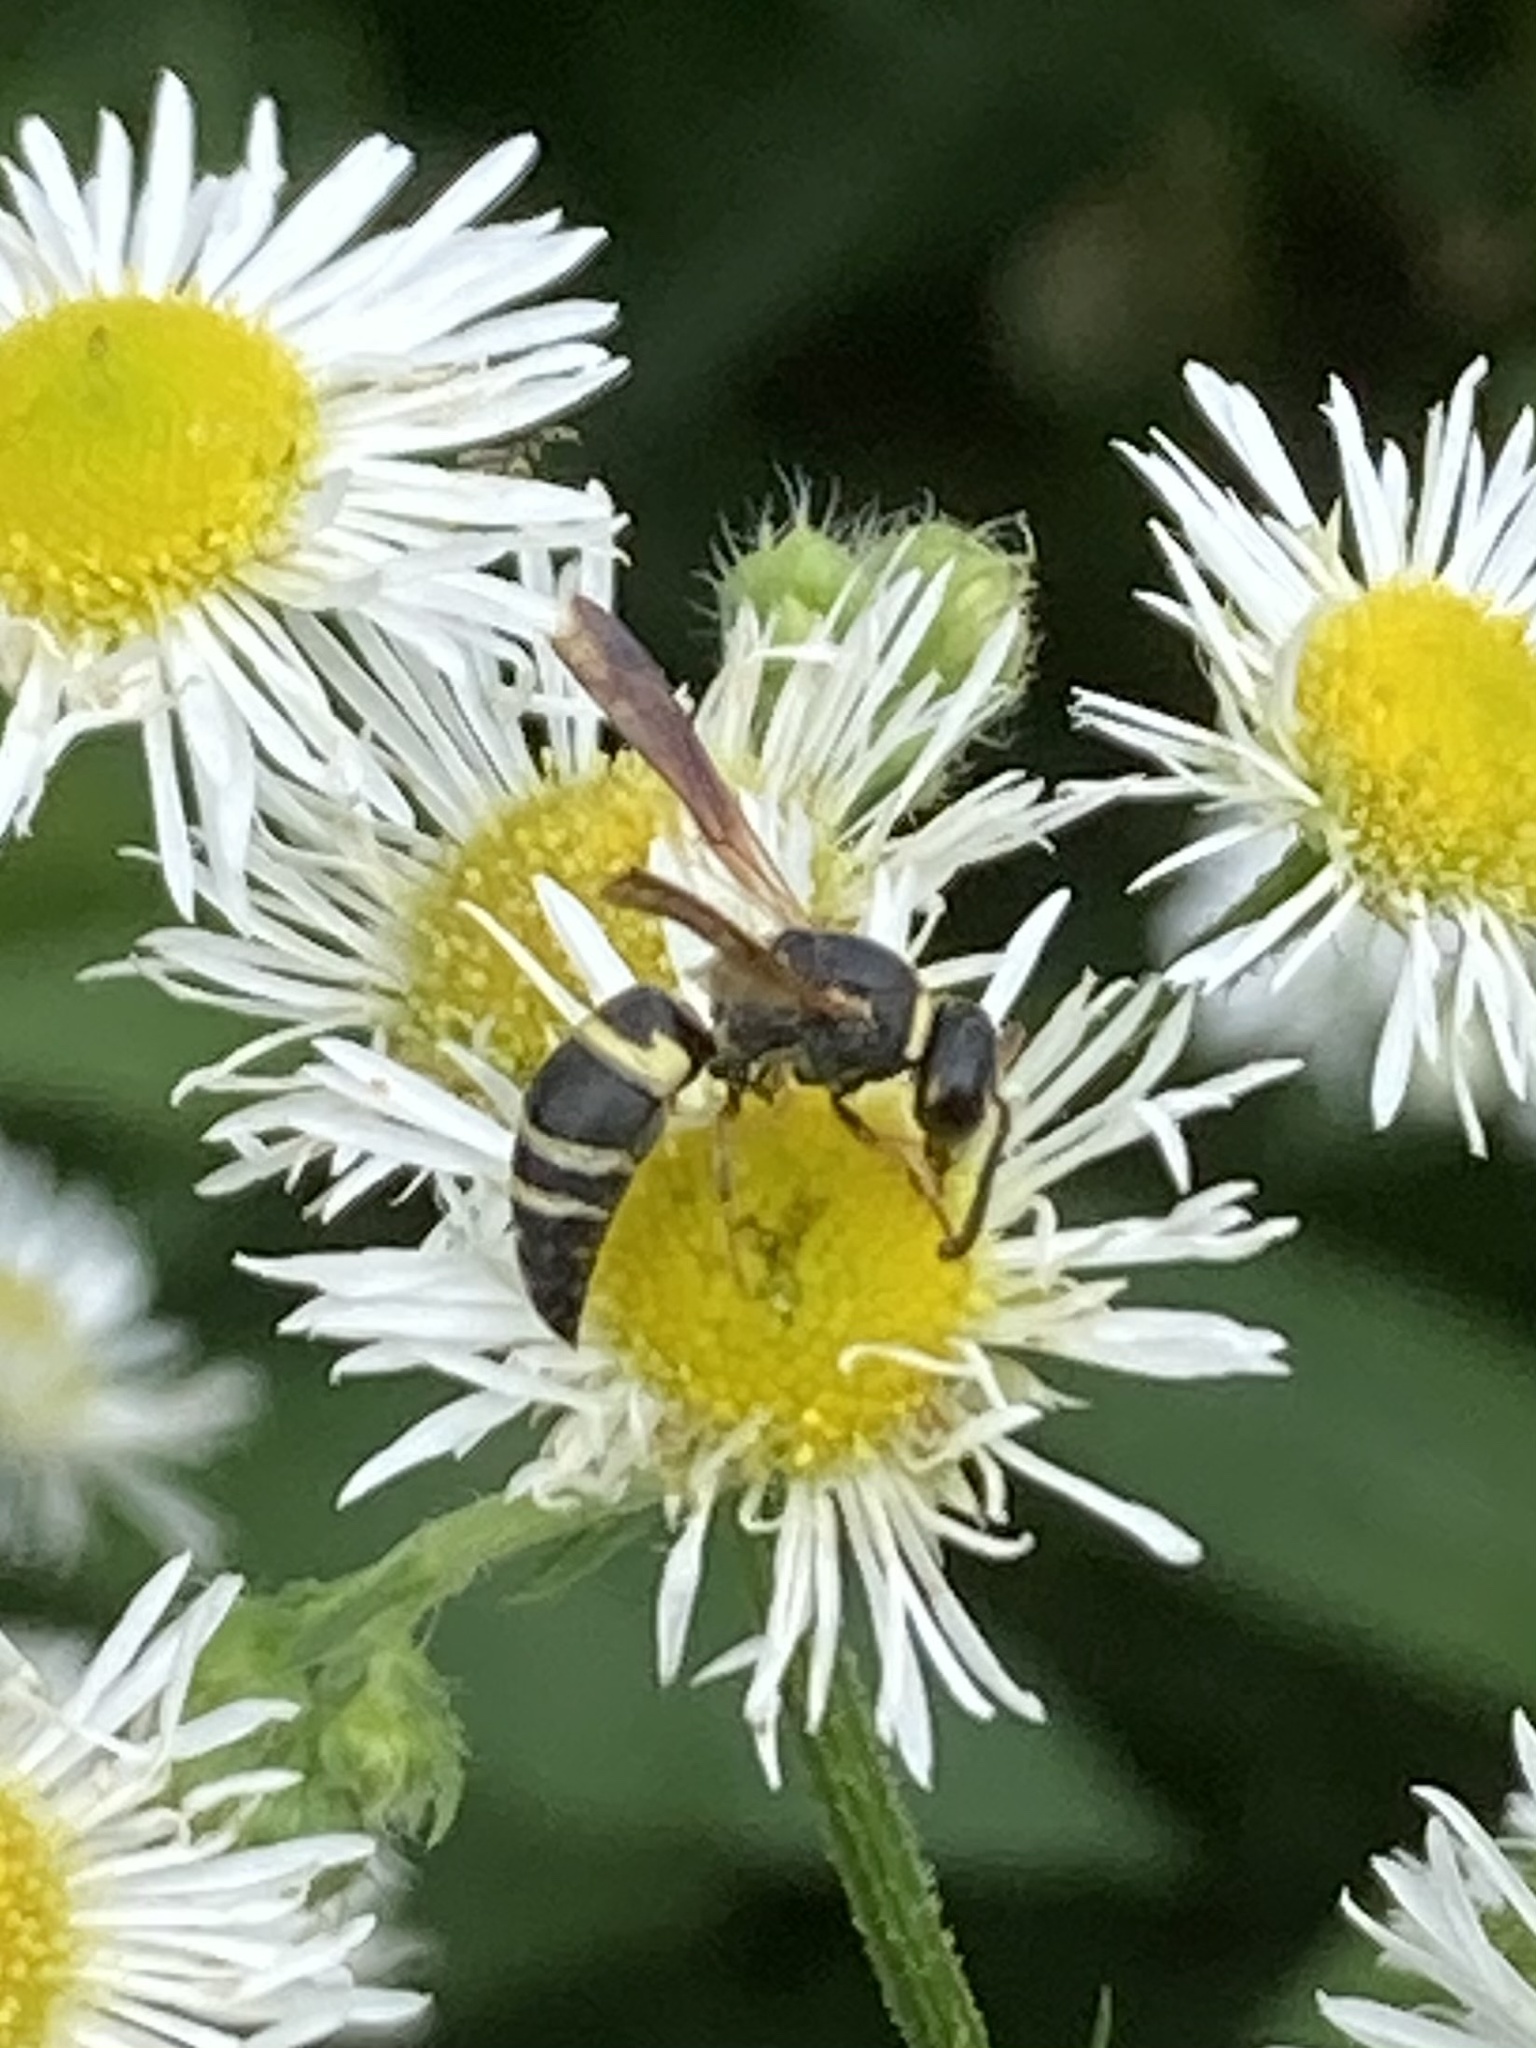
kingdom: Animalia
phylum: Arthropoda
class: Insecta
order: Hymenoptera
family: Eumenidae
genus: Euodynerus
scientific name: Euodynerus hidalgo
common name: Wasp
